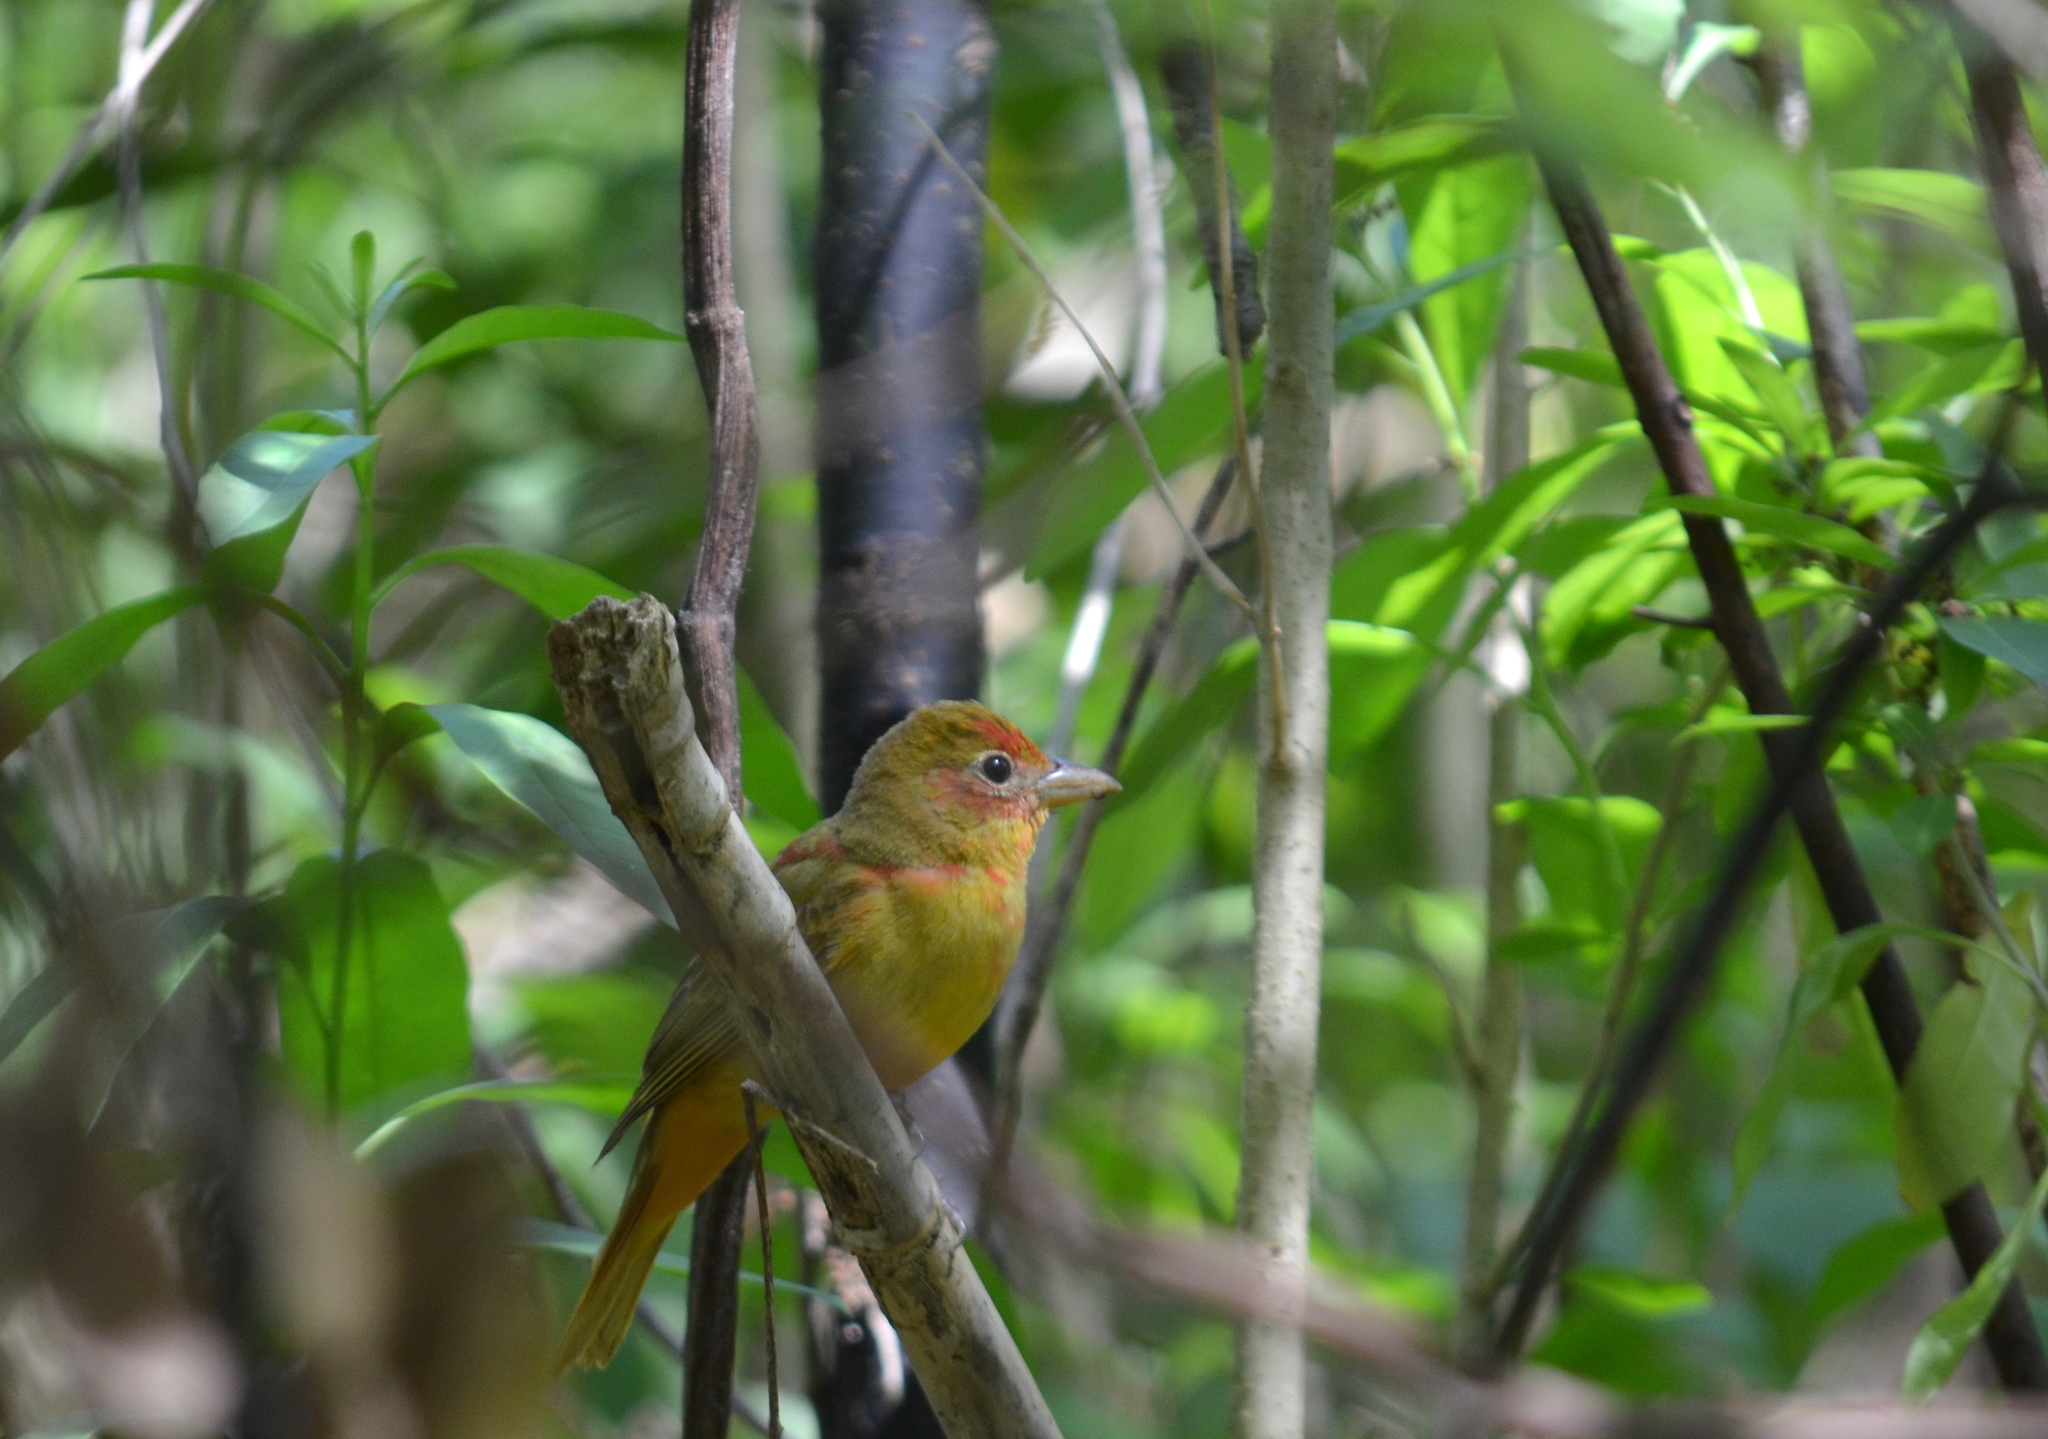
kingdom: Animalia
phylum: Chordata
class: Aves
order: Passeriformes
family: Cardinalidae
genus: Piranga
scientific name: Piranga rubra
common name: Summer tanager
